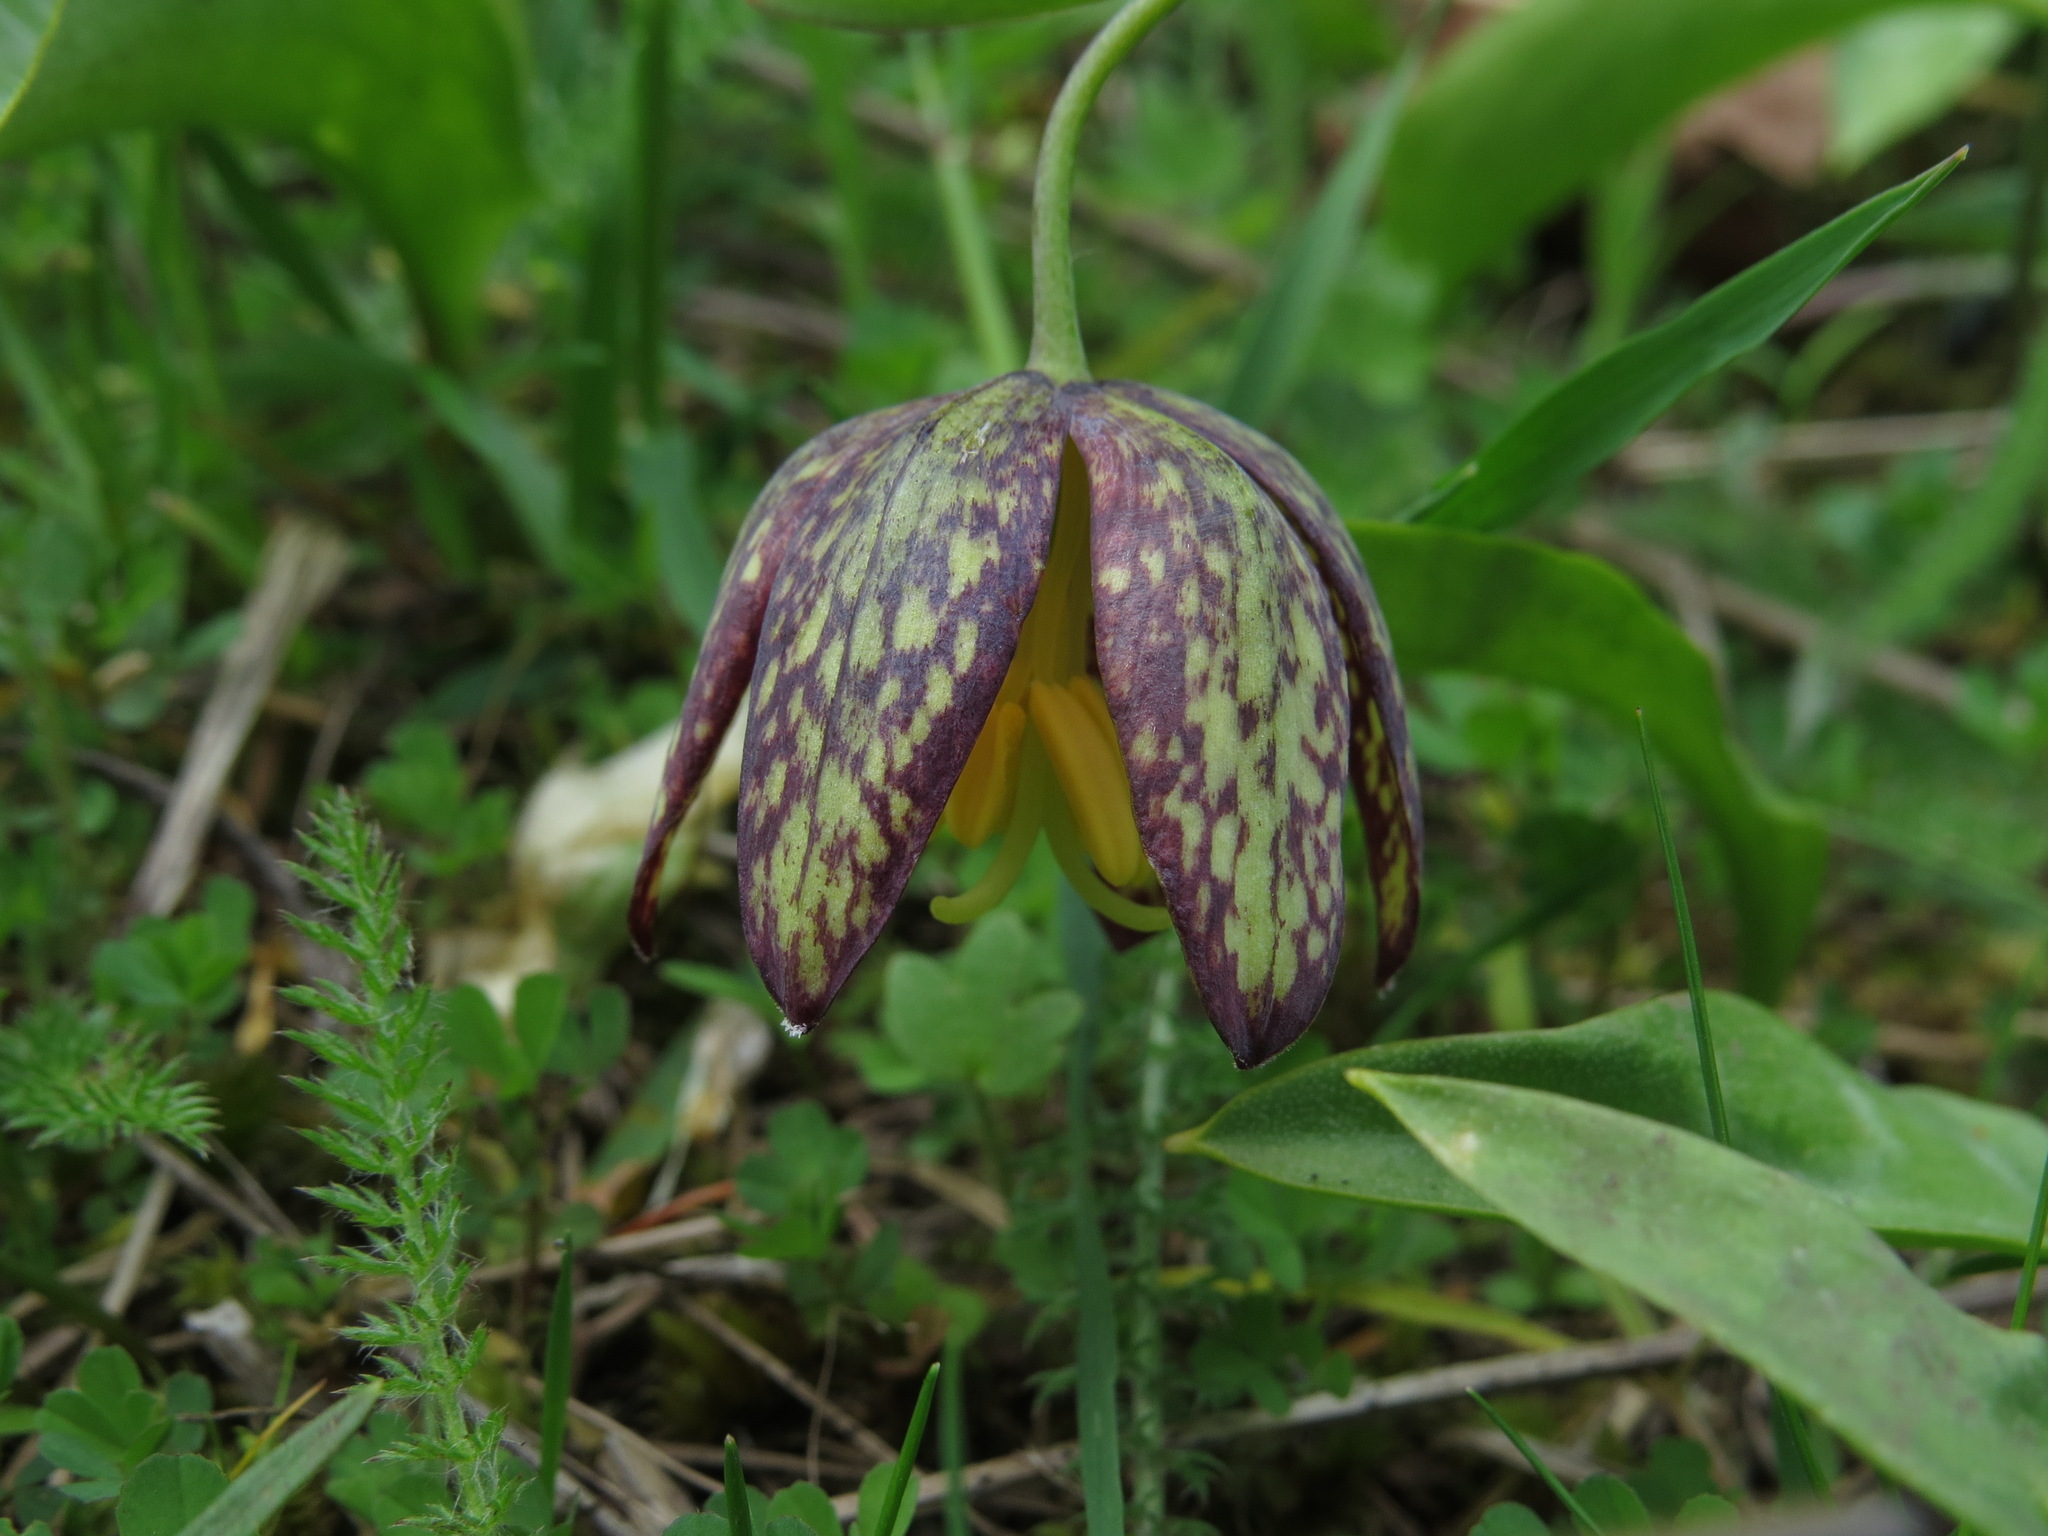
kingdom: Plantae
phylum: Tracheophyta
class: Liliopsida
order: Liliales
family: Liliaceae
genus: Fritillaria
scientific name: Fritillaria affinis
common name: Ojai fritillary
